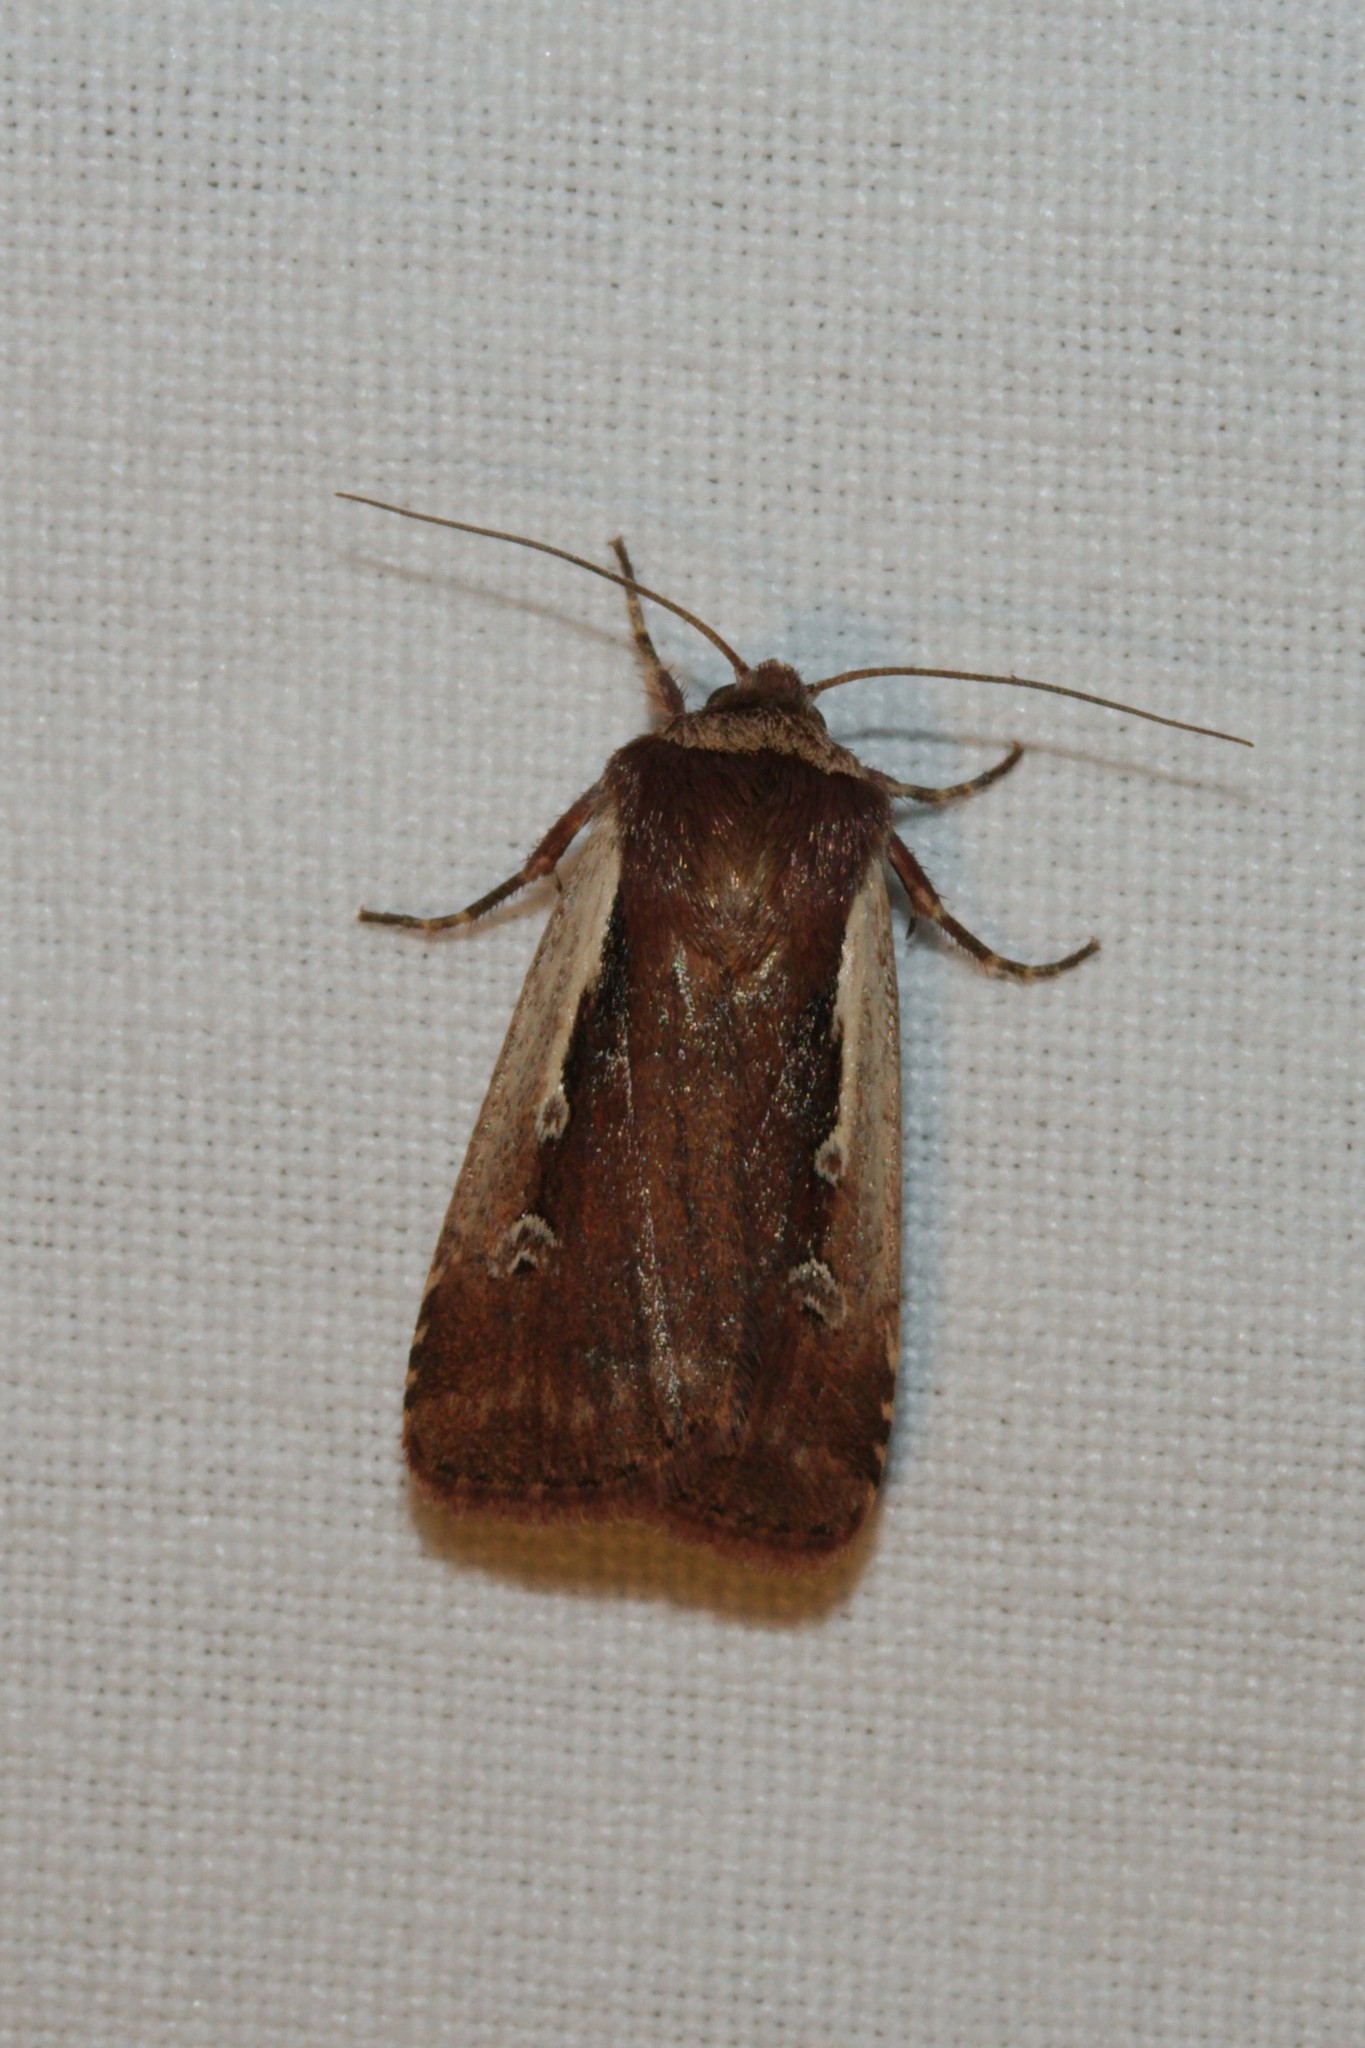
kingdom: Animalia
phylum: Arthropoda
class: Insecta
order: Lepidoptera
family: Noctuidae
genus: Ochropleura
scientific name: Ochropleura plecta
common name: Flame shoulder
